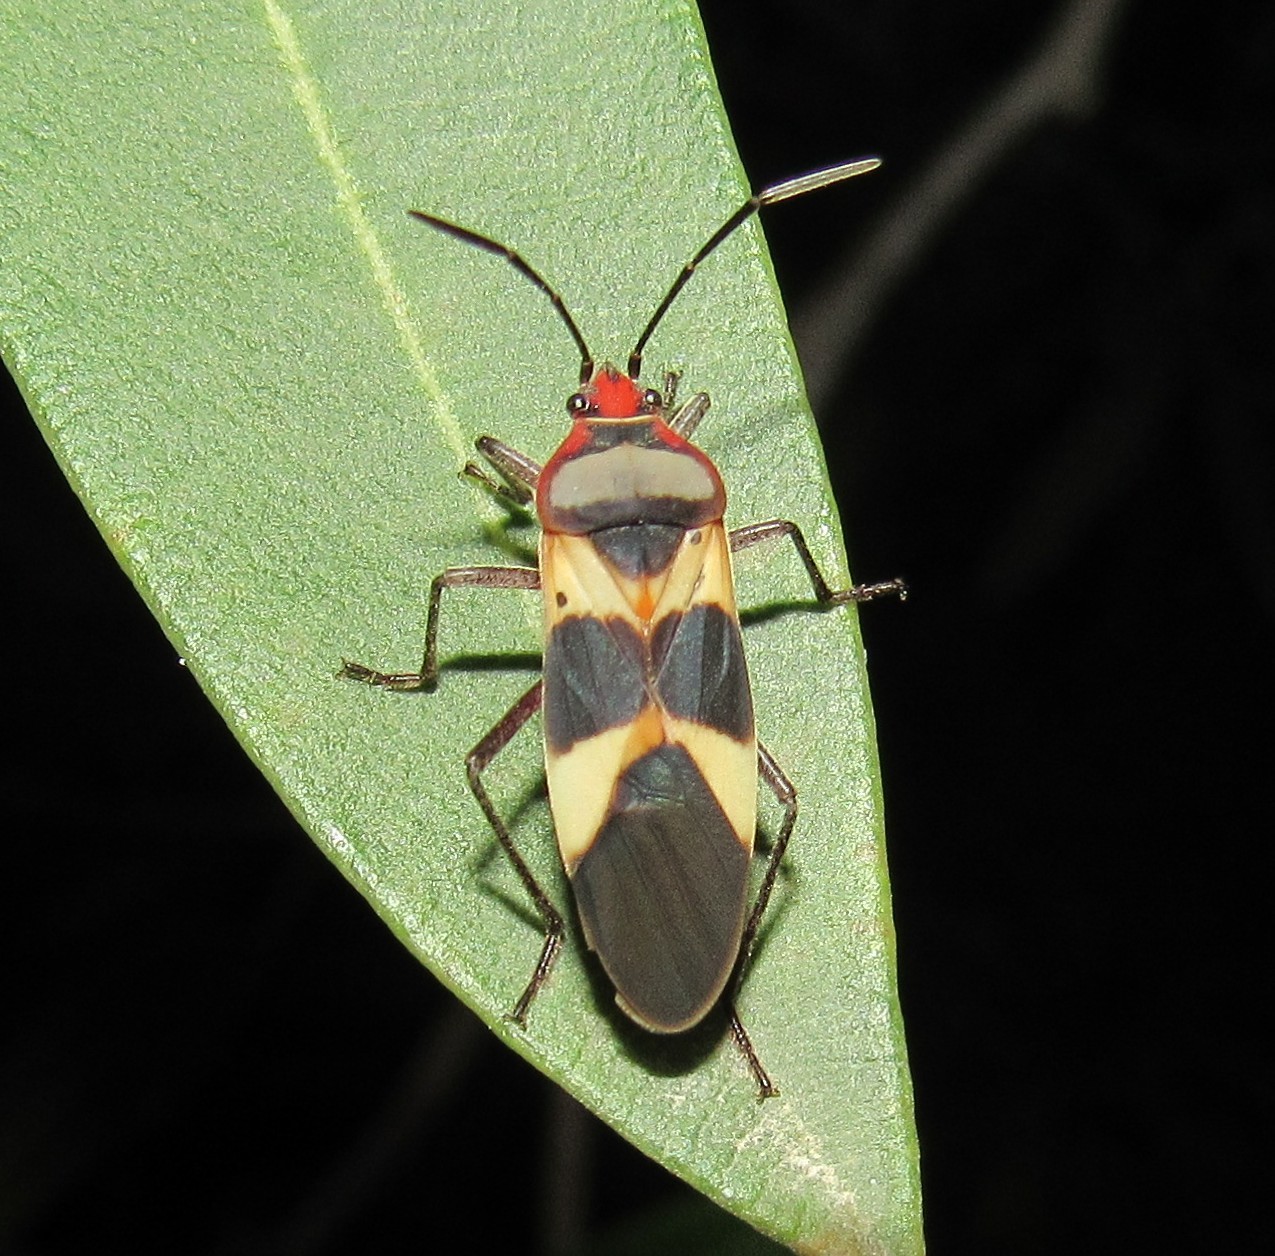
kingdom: Animalia
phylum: Arthropoda
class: Insecta
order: Hemiptera
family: Lygaeidae
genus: Oncopeltus
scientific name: Oncopeltus unifasciatellus
